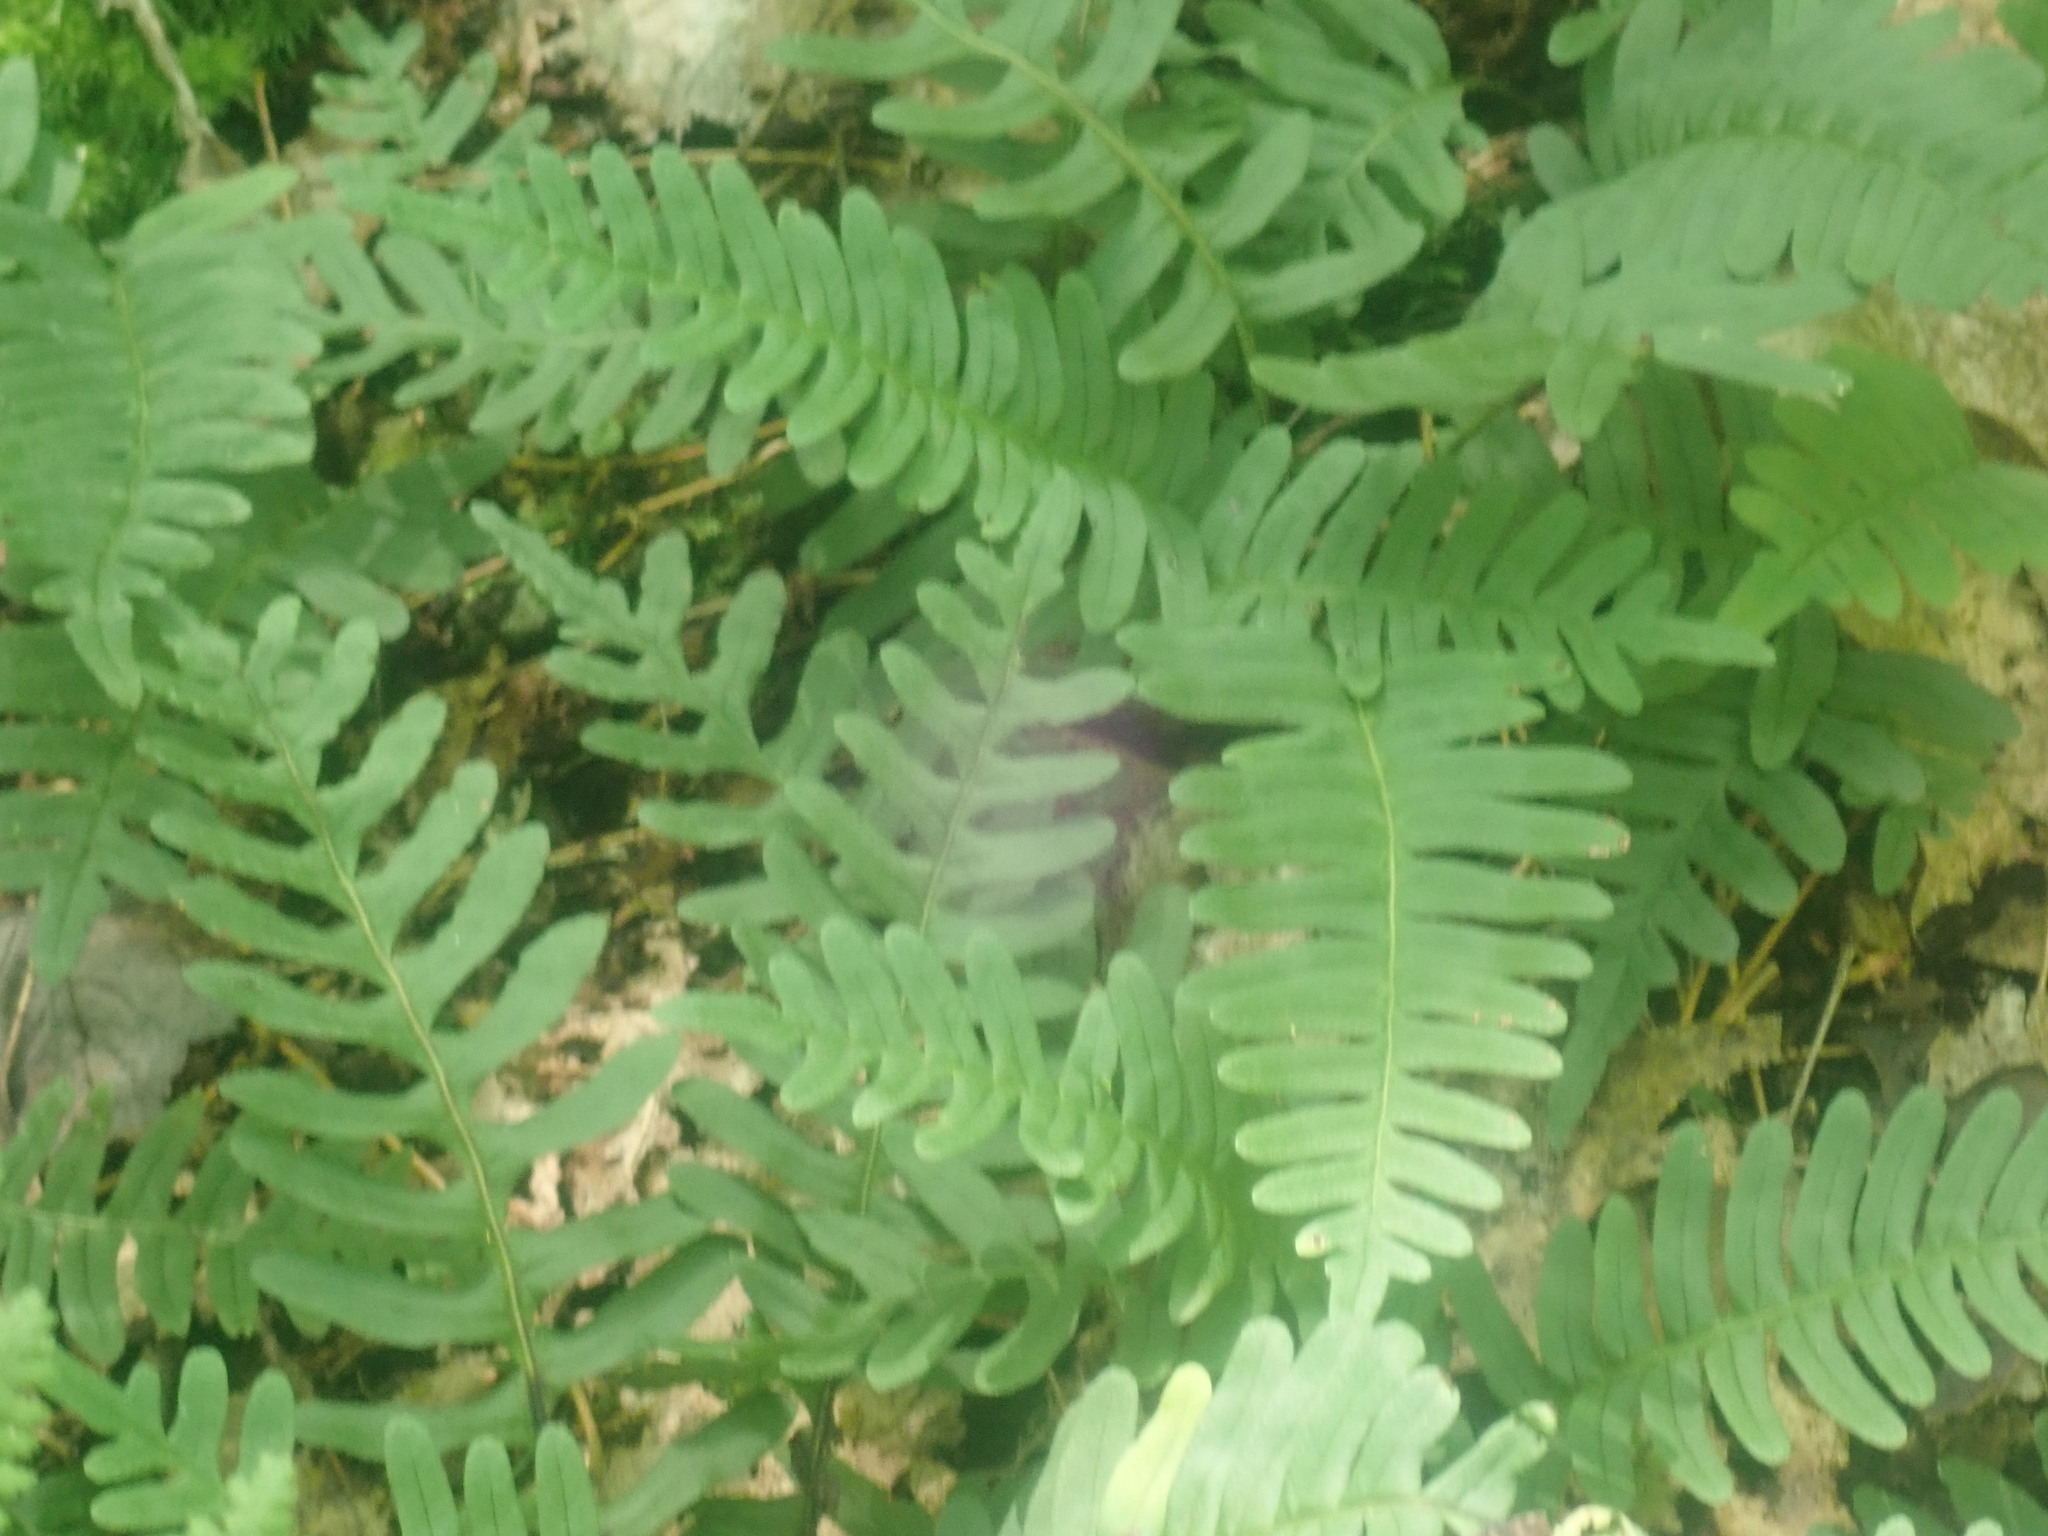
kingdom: Plantae
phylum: Tracheophyta
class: Polypodiopsida
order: Polypodiales
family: Polypodiaceae
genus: Polypodium
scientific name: Polypodium
